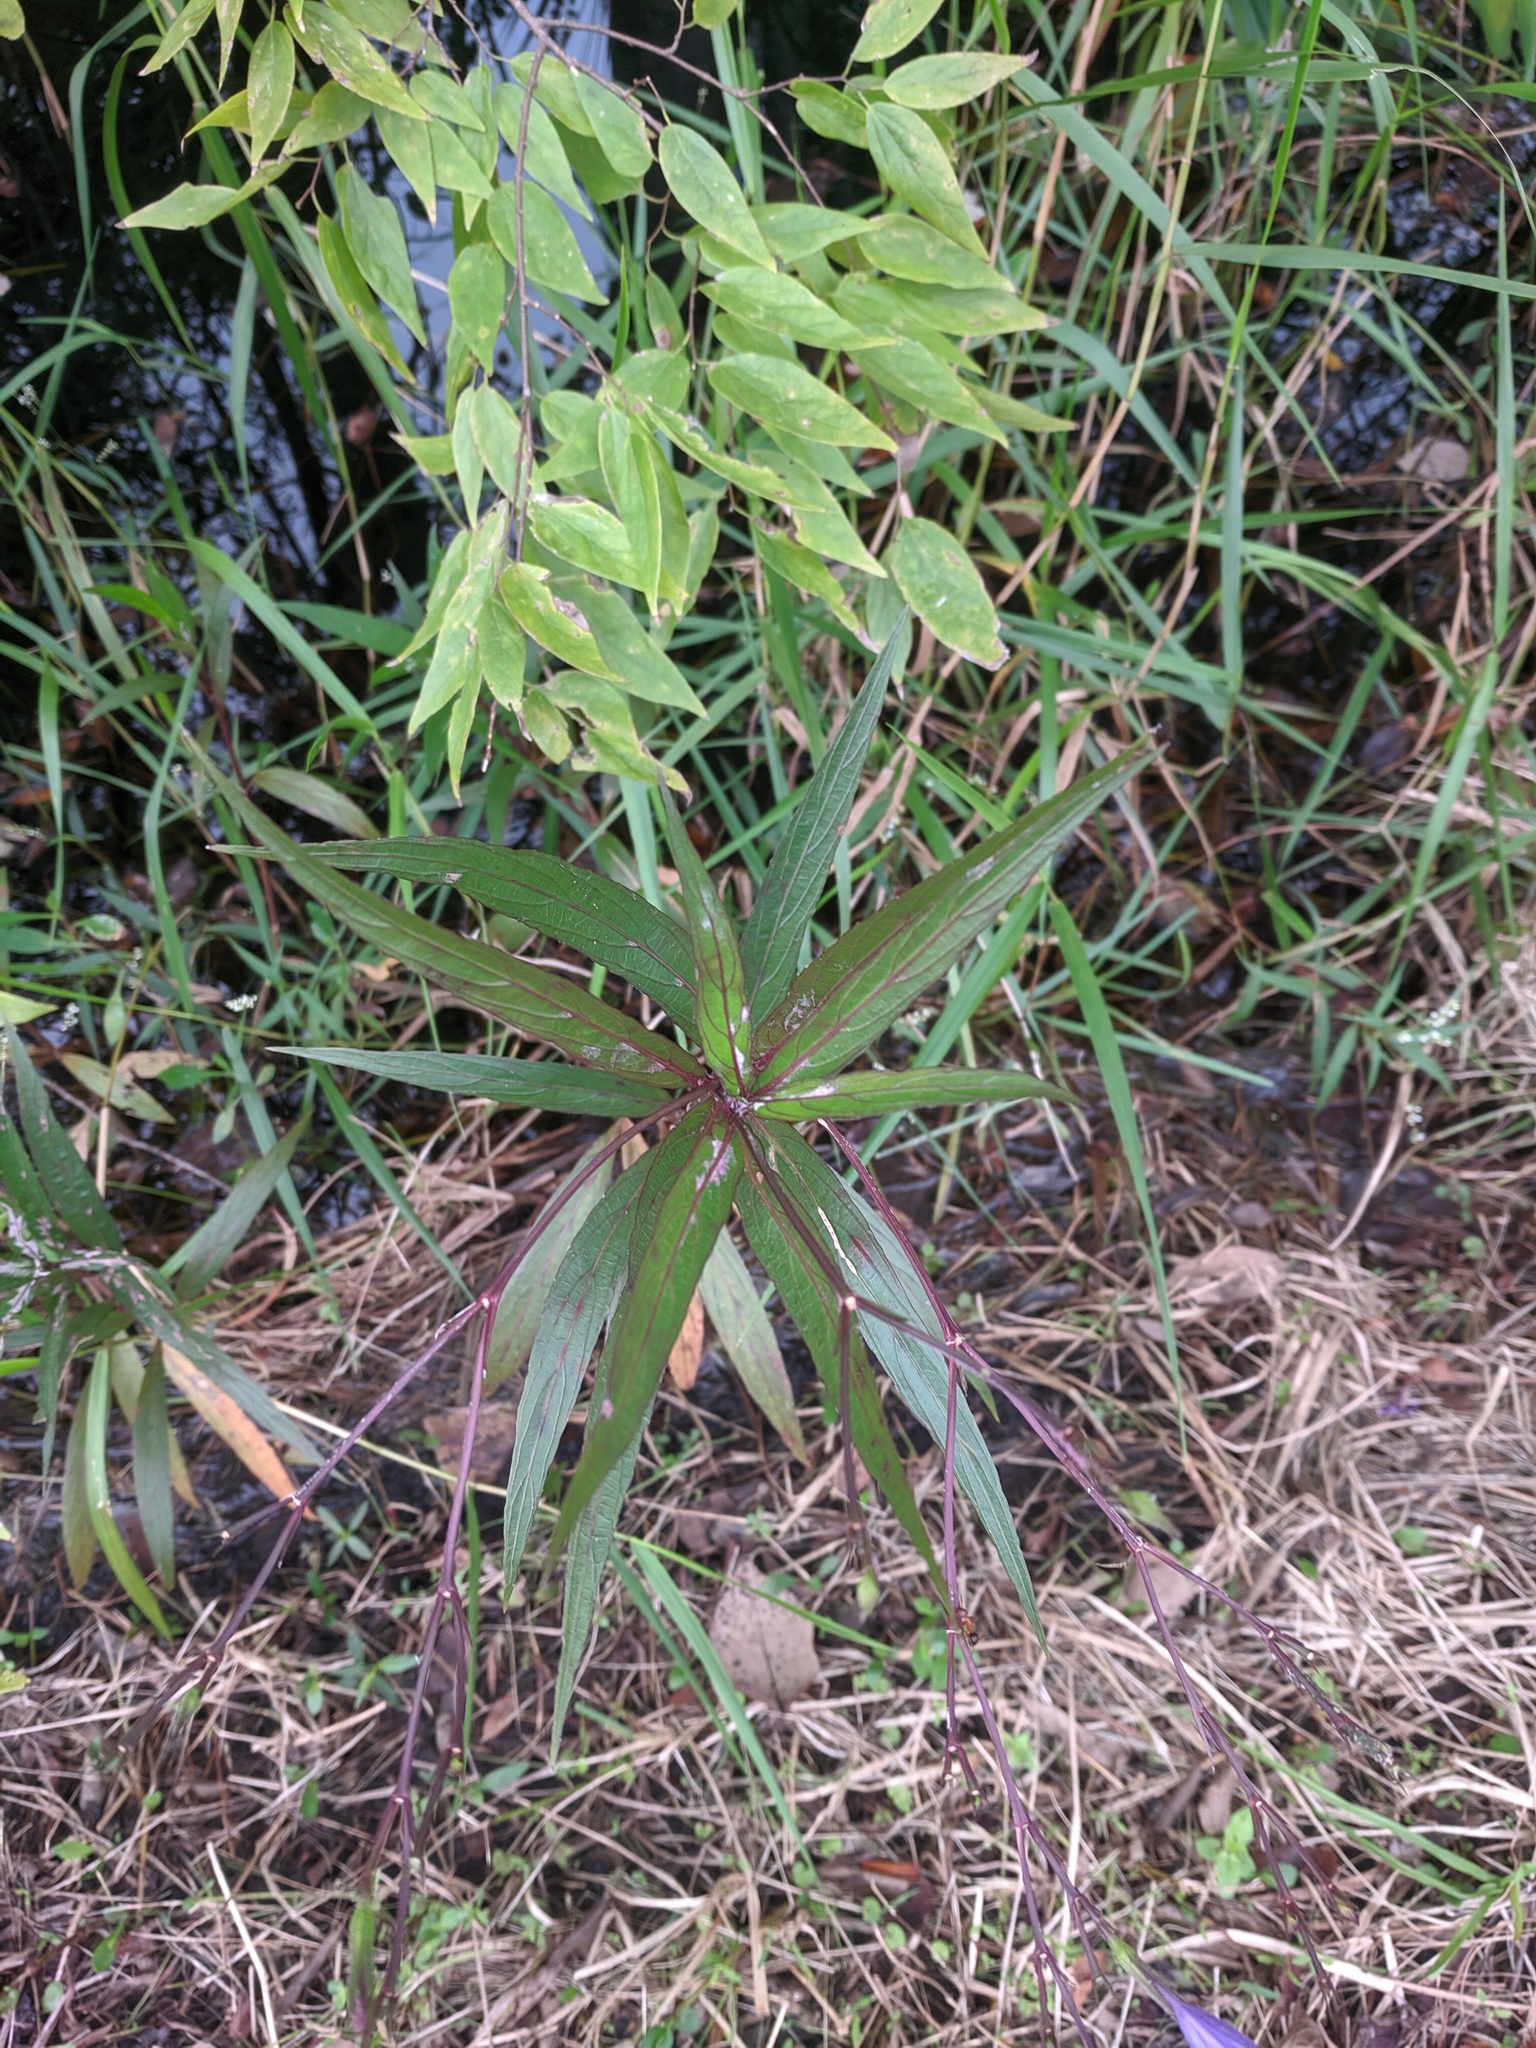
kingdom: Plantae
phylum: Tracheophyta
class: Magnoliopsida
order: Lamiales
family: Acanthaceae
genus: Ruellia
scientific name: Ruellia simplex
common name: Softseed wild petunia
